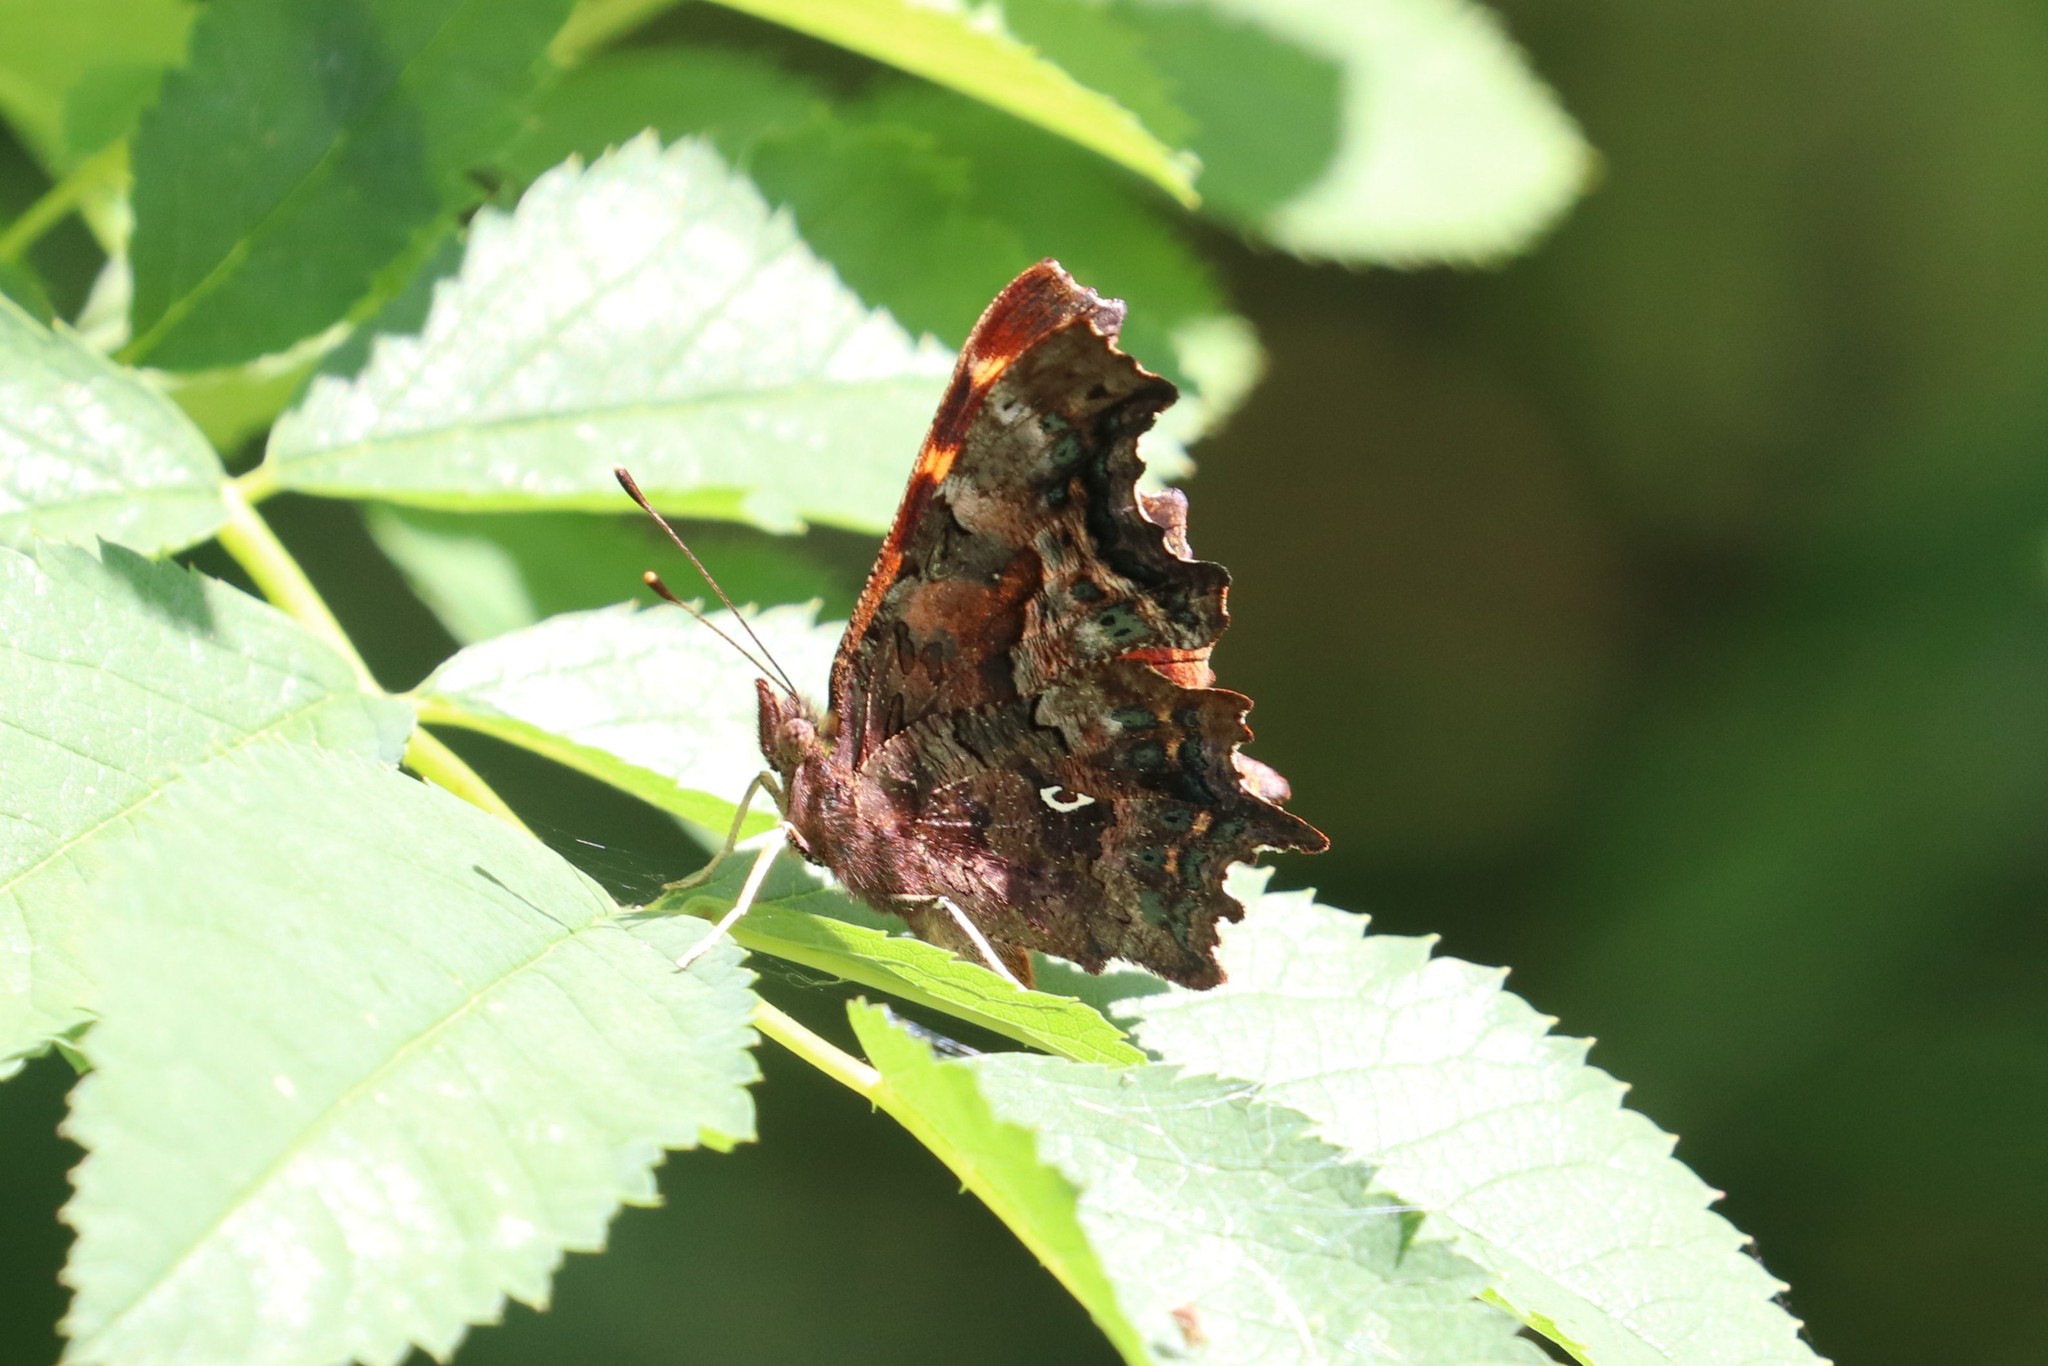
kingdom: Animalia
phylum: Arthropoda
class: Insecta
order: Lepidoptera
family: Nymphalidae
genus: Polygonia
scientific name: Polygonia c-album
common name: Comma
